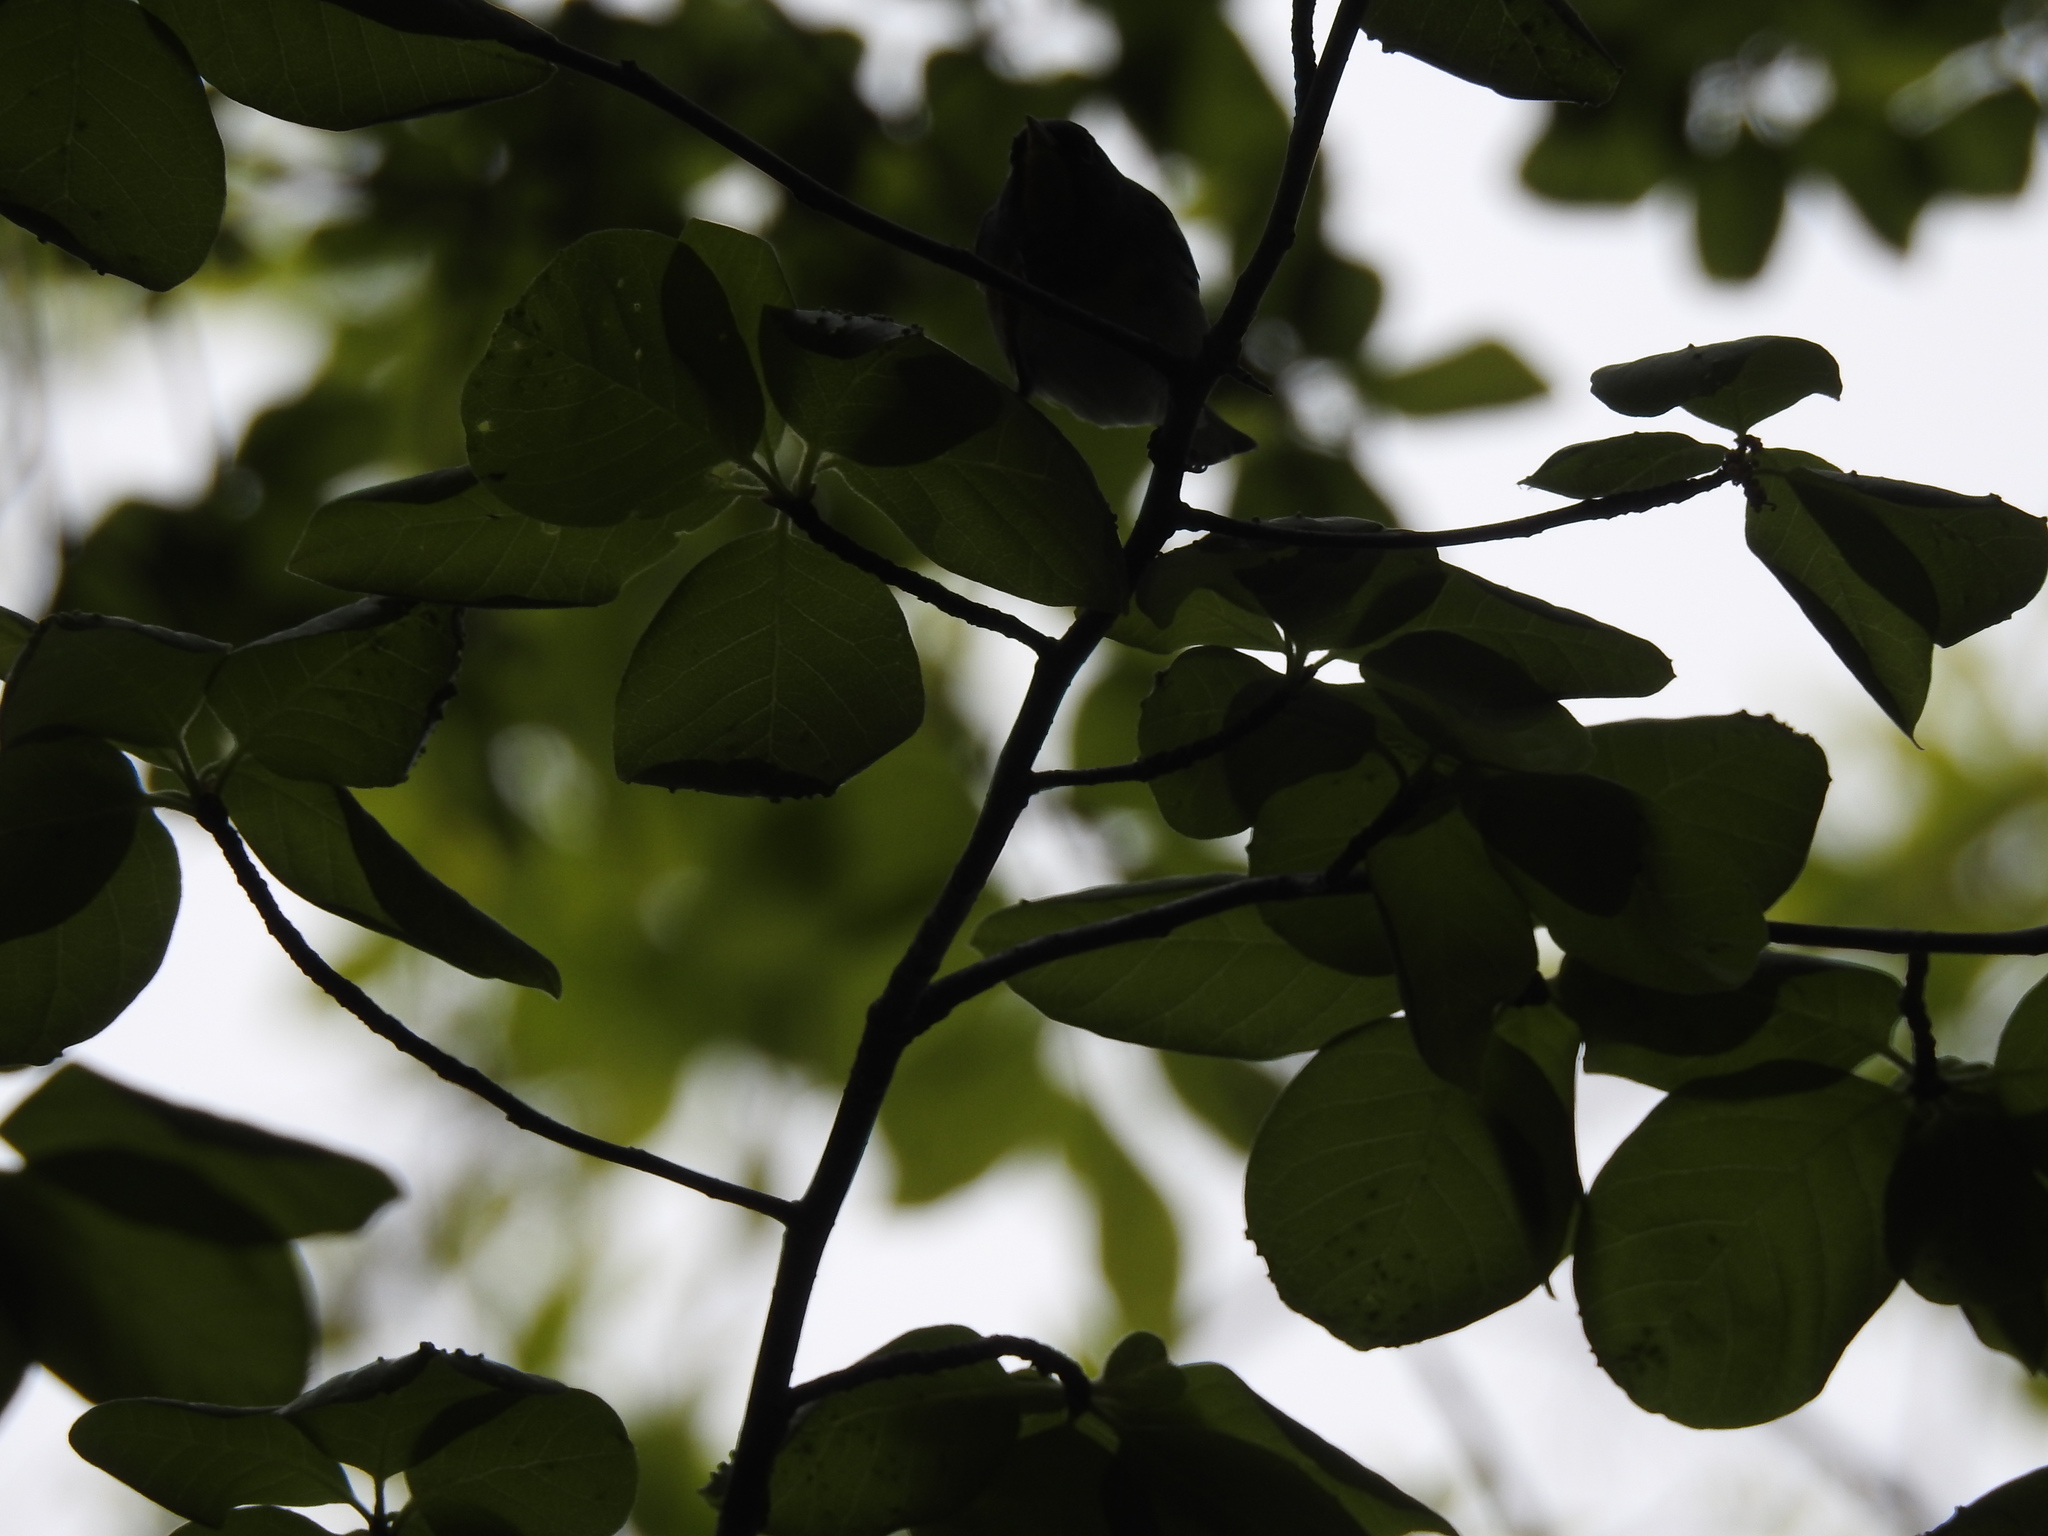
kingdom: Animalia
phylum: Chordata
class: Aves
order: Passeriformes
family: Parulidae
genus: Setophaga
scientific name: Setophaga americana
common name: Northern parula
